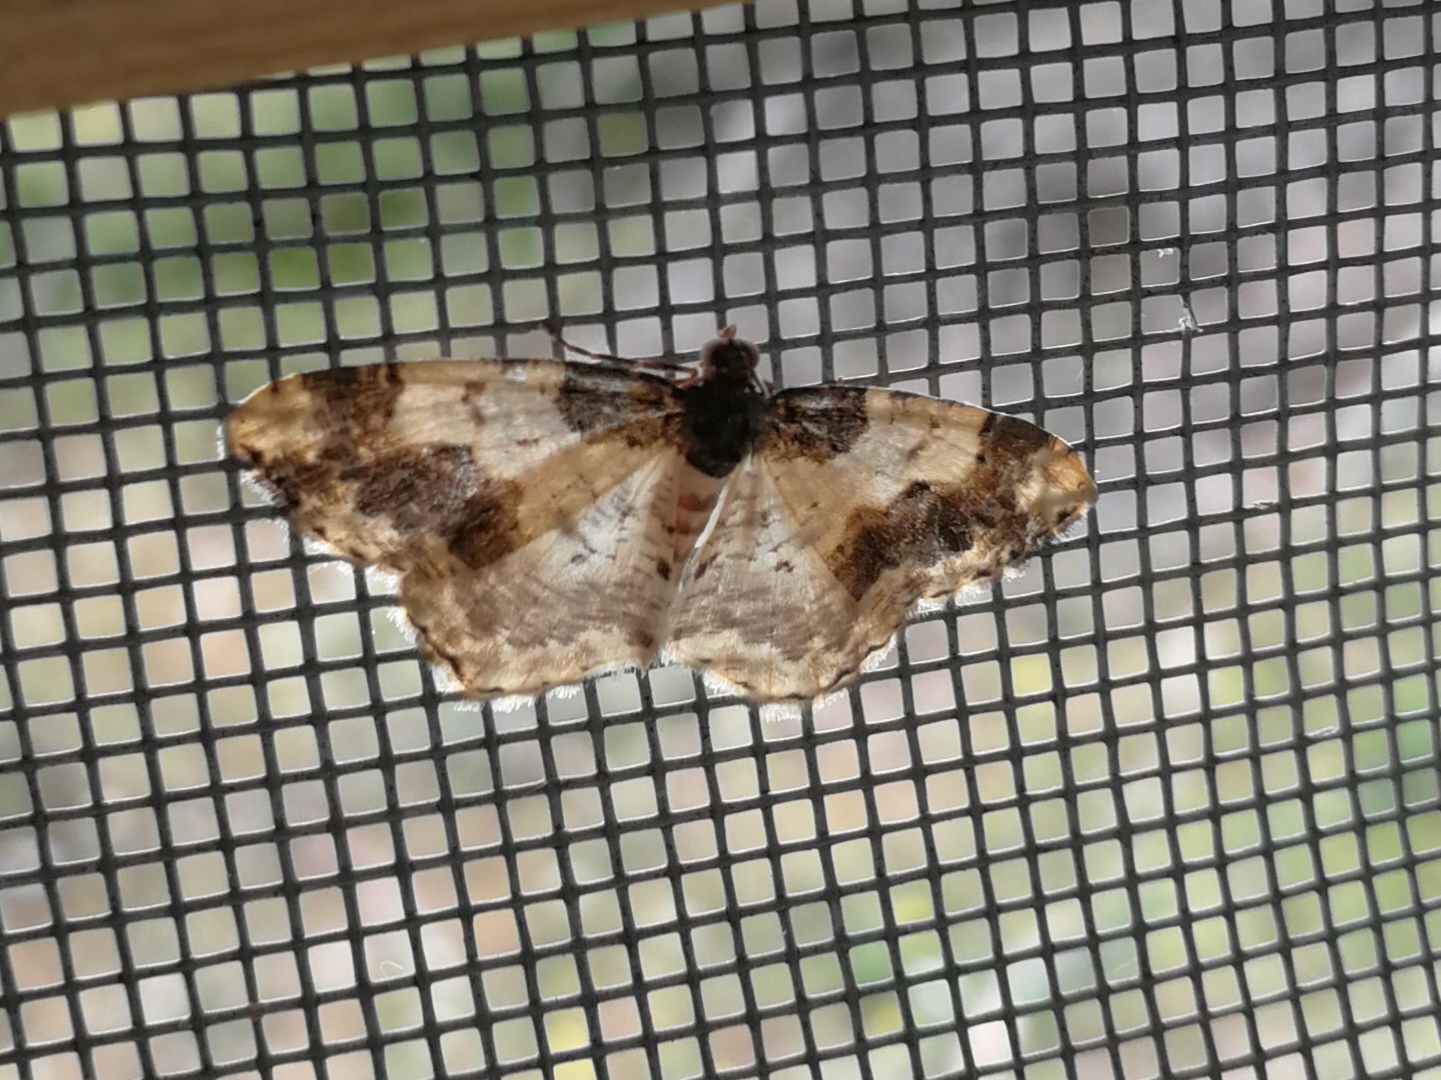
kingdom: Animalia
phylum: Arthropoda
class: Insecta
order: Lepidoptera
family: Geometridae
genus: Ligdia
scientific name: Ligdia adustata
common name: Scorched carpet
